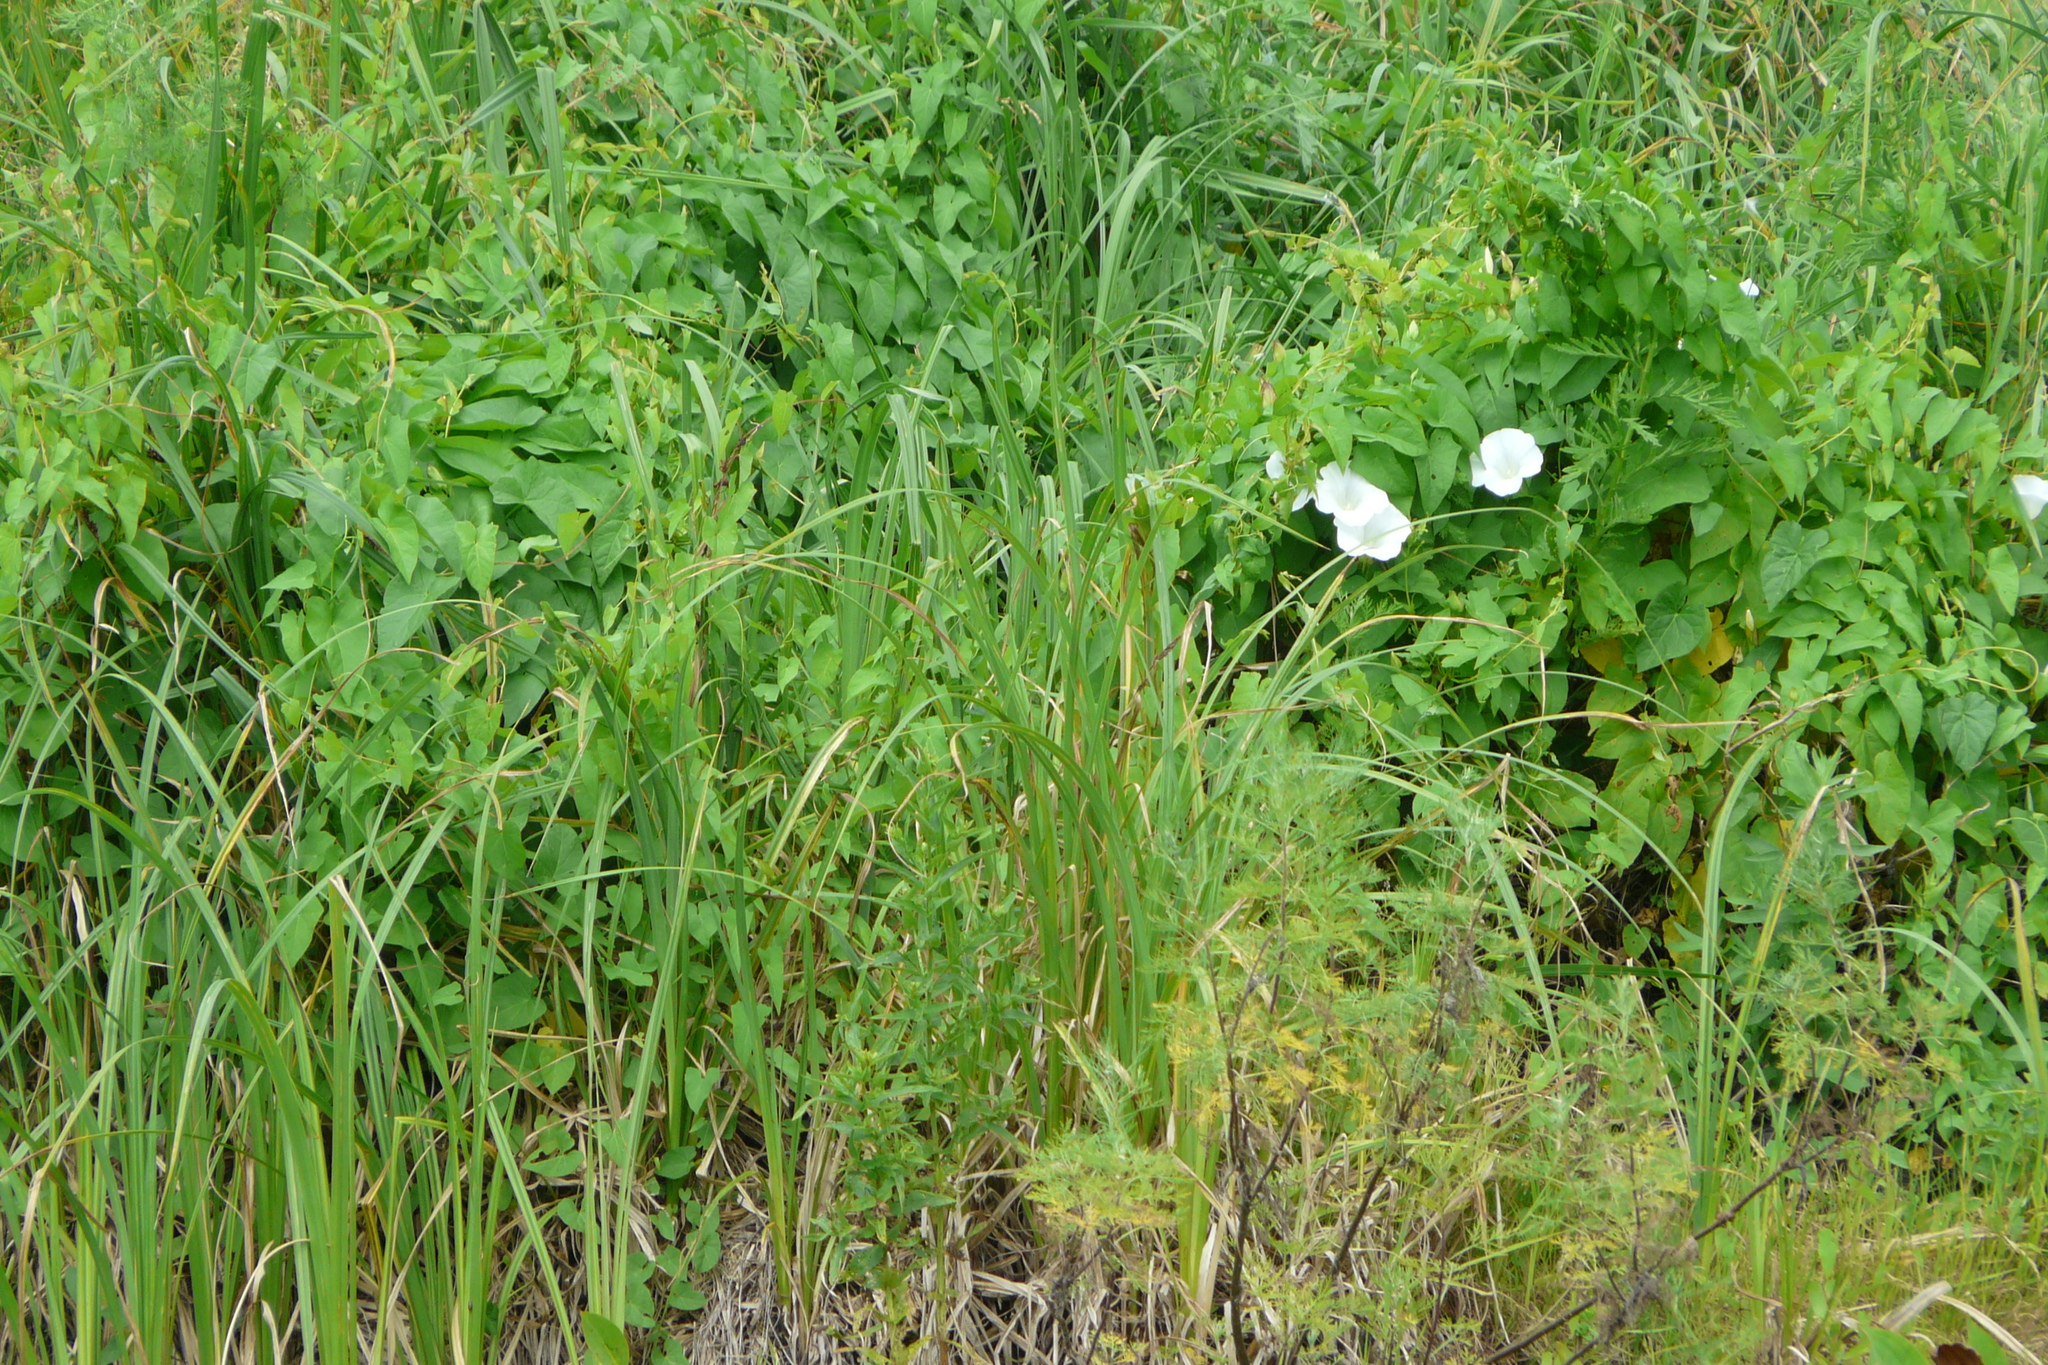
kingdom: Plantae
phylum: Tracheophyta
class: Magnoliopsida
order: Solanales
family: Convolvulaceae
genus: Calystegia
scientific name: Calystegia sepium
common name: Hedge bindweed
